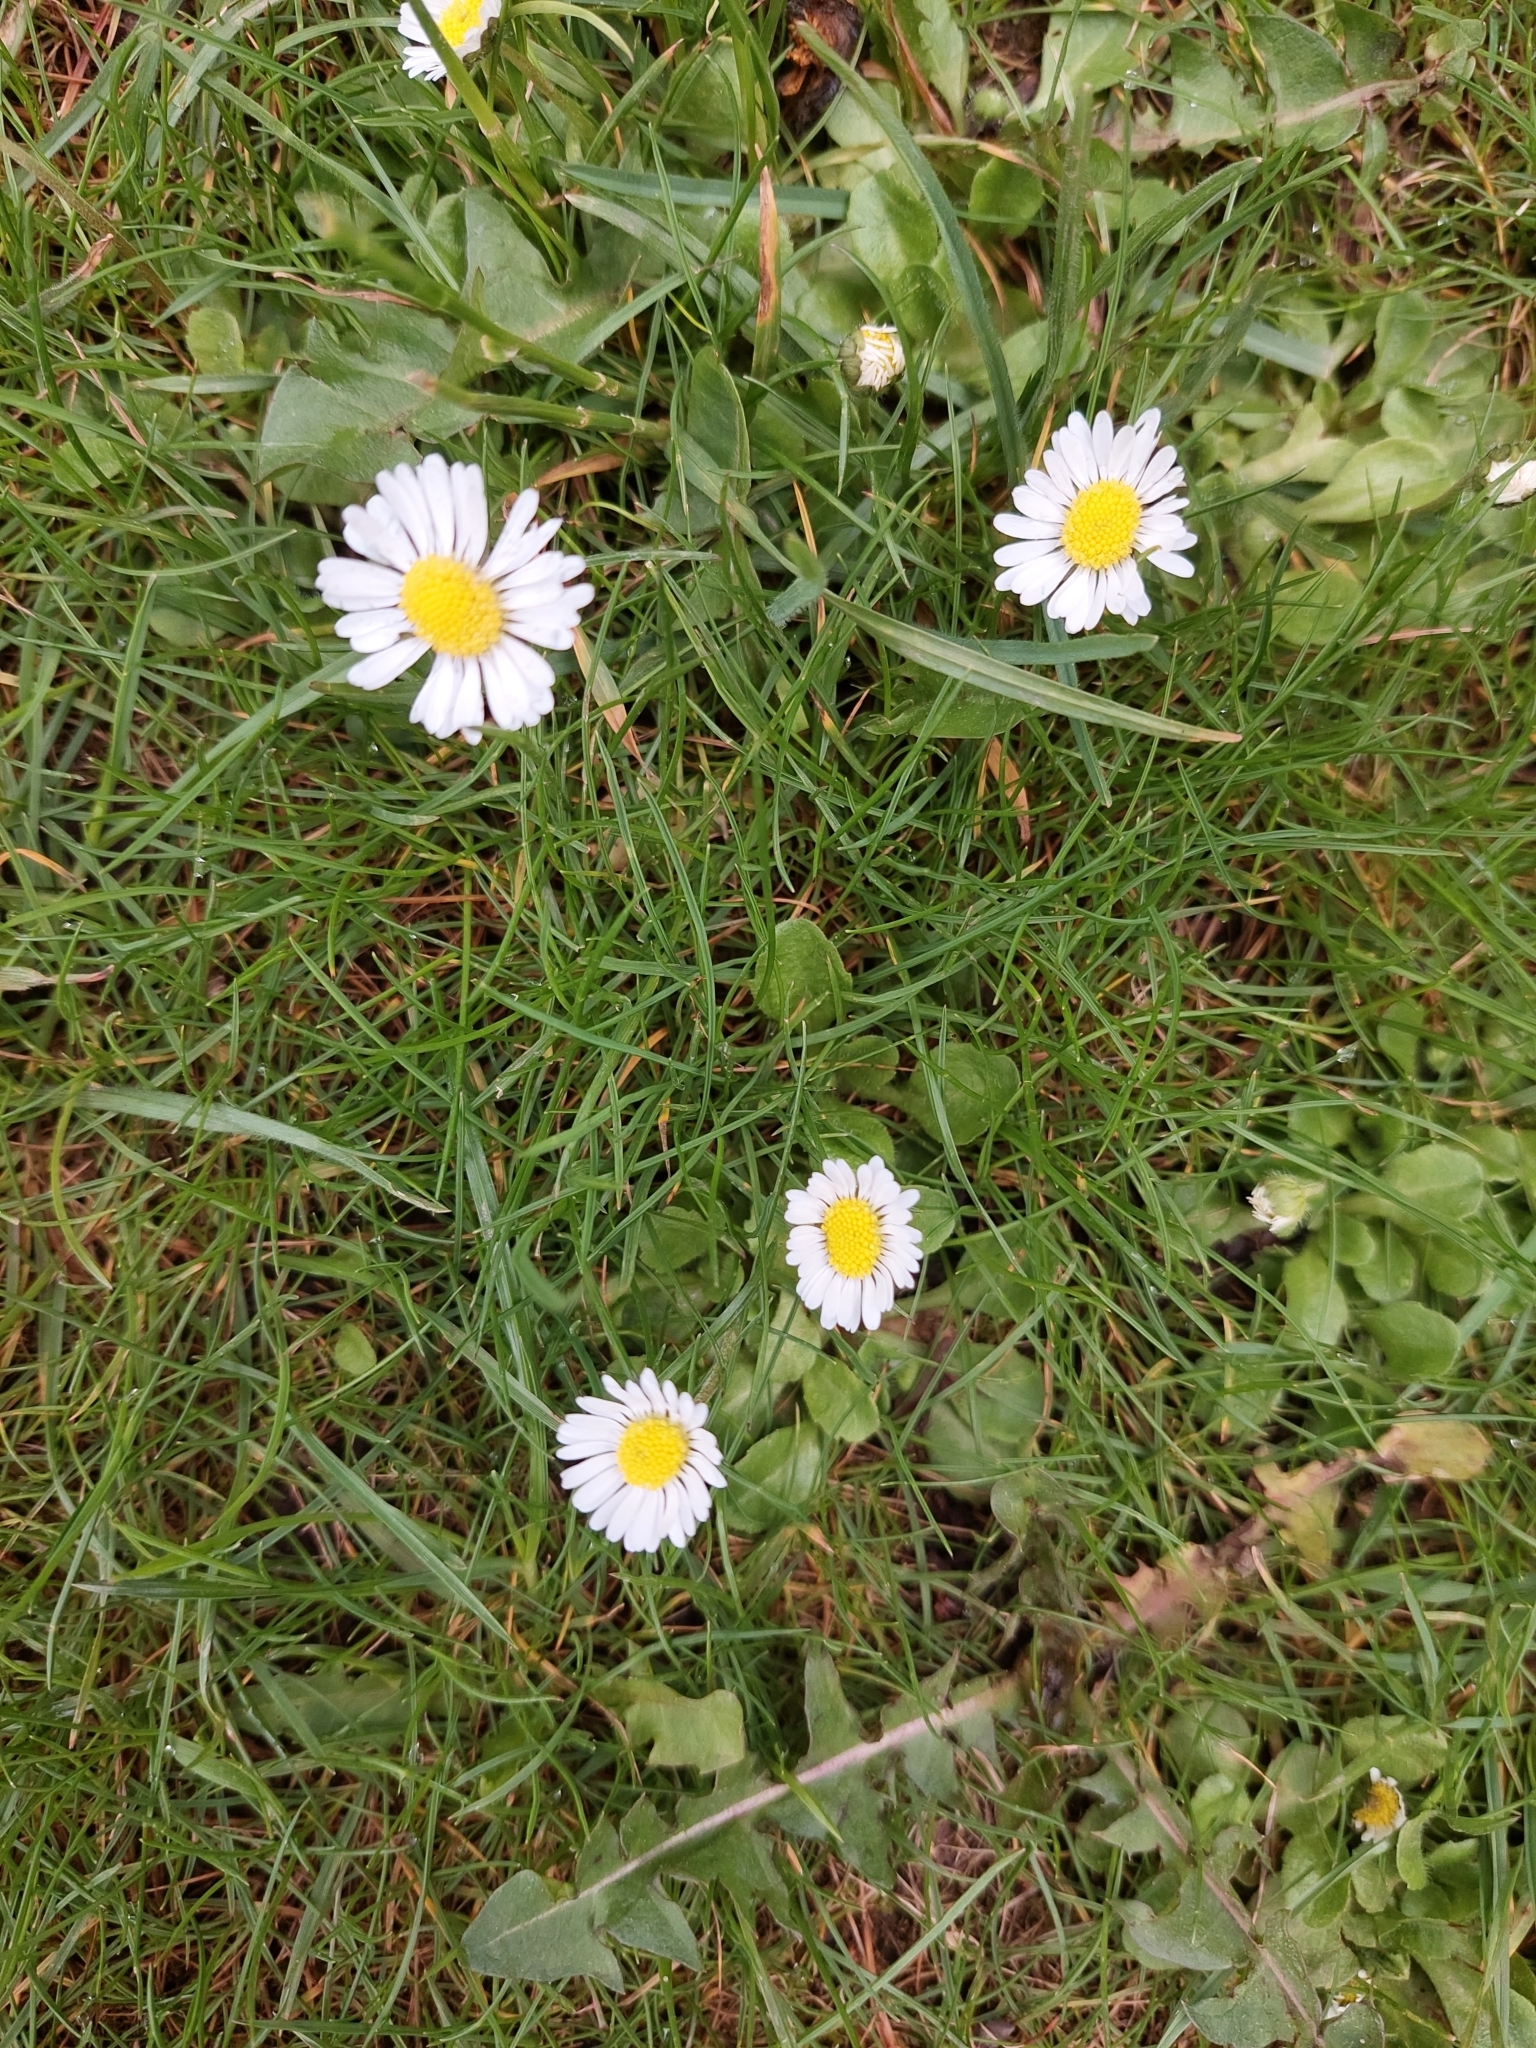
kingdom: Plantae
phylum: Tracheophyta
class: Magnoliopsida
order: Asterales
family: Asteraceae
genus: Bellis
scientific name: Bellis perennis
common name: Lawndaisy
